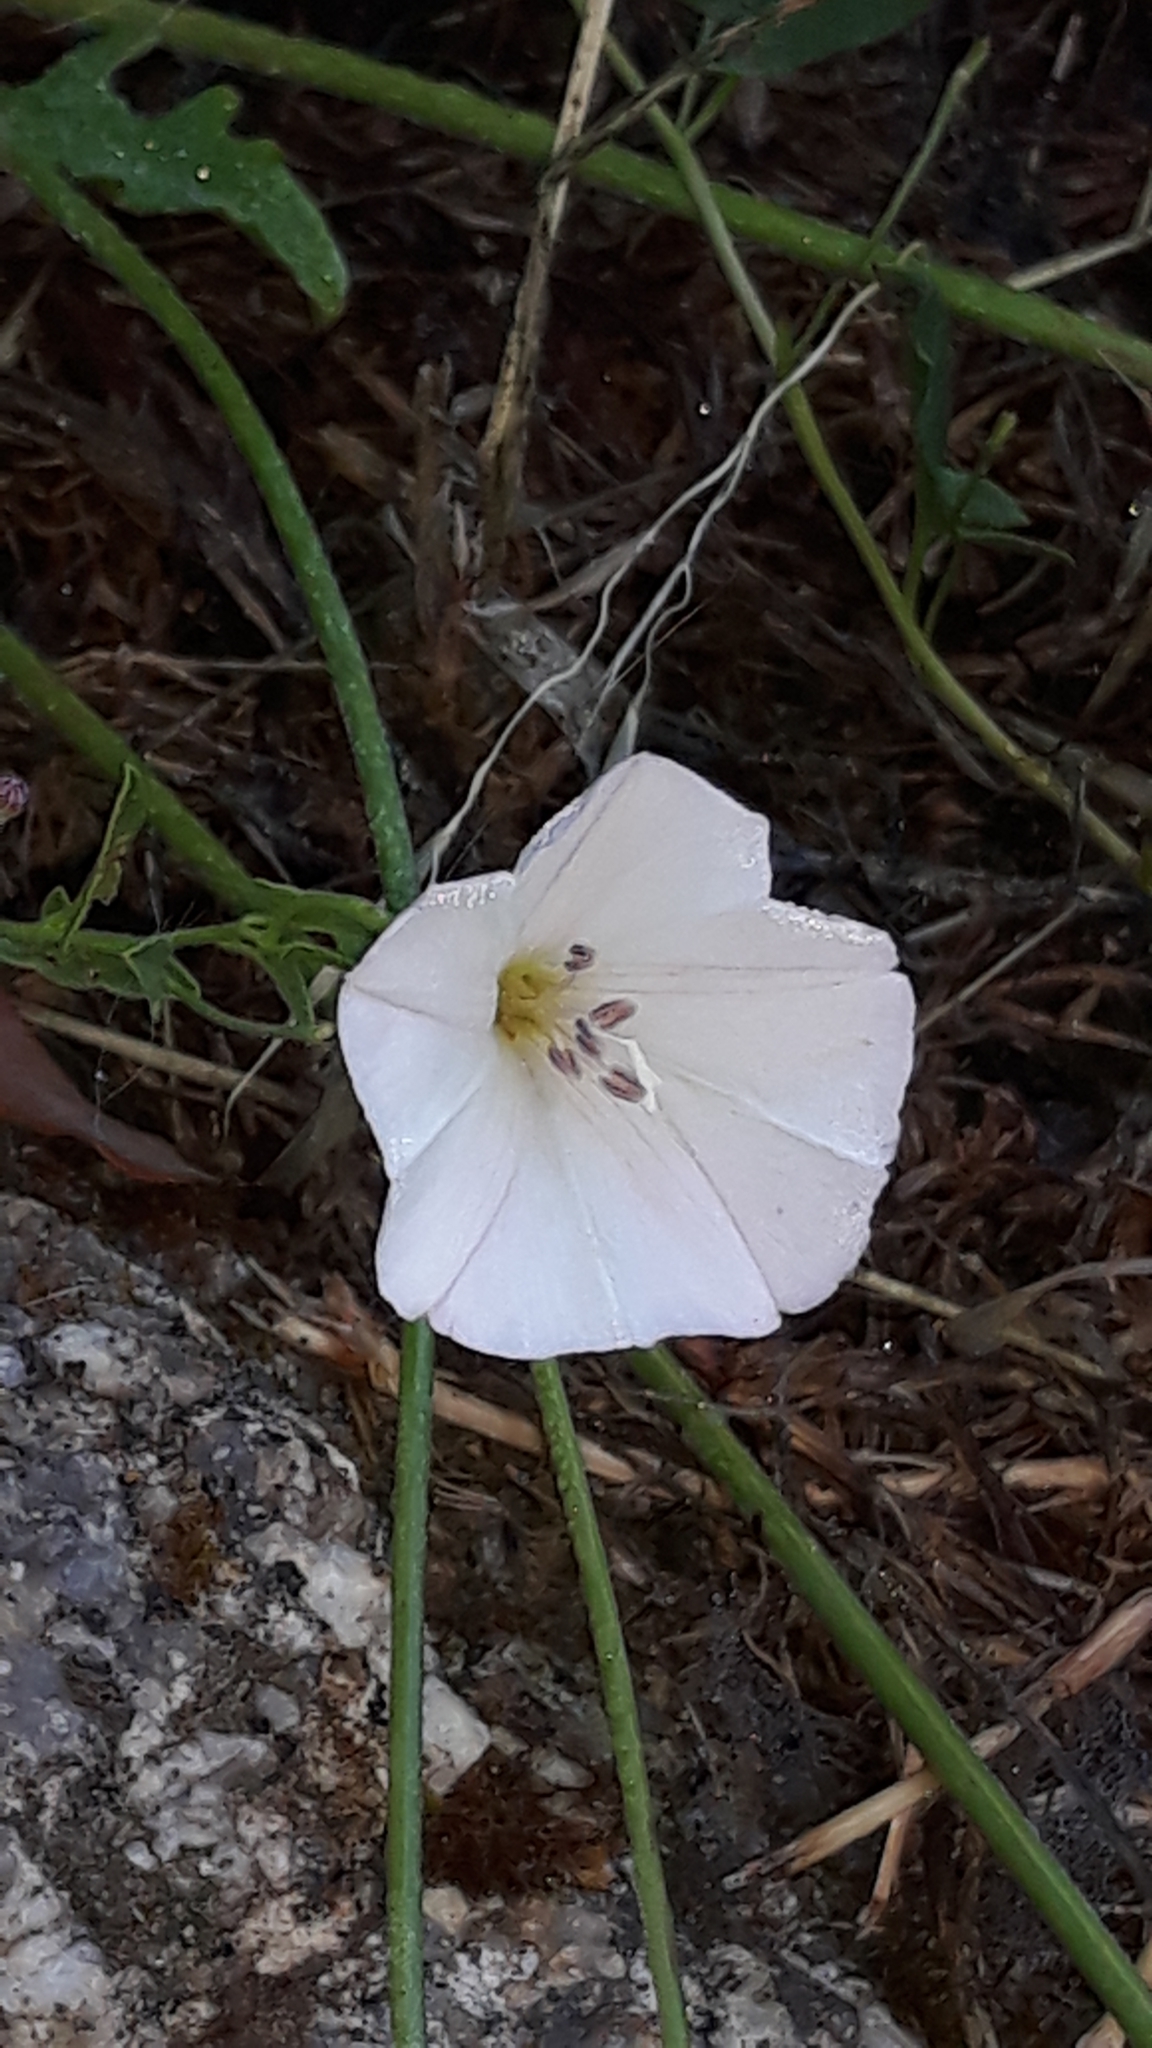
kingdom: Plantae
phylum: Tracheophyta
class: Magnoliopsida
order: Solanales
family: Convolvulaceae
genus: Convolvulus
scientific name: Convolvulus arvensis
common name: Field bindweed
